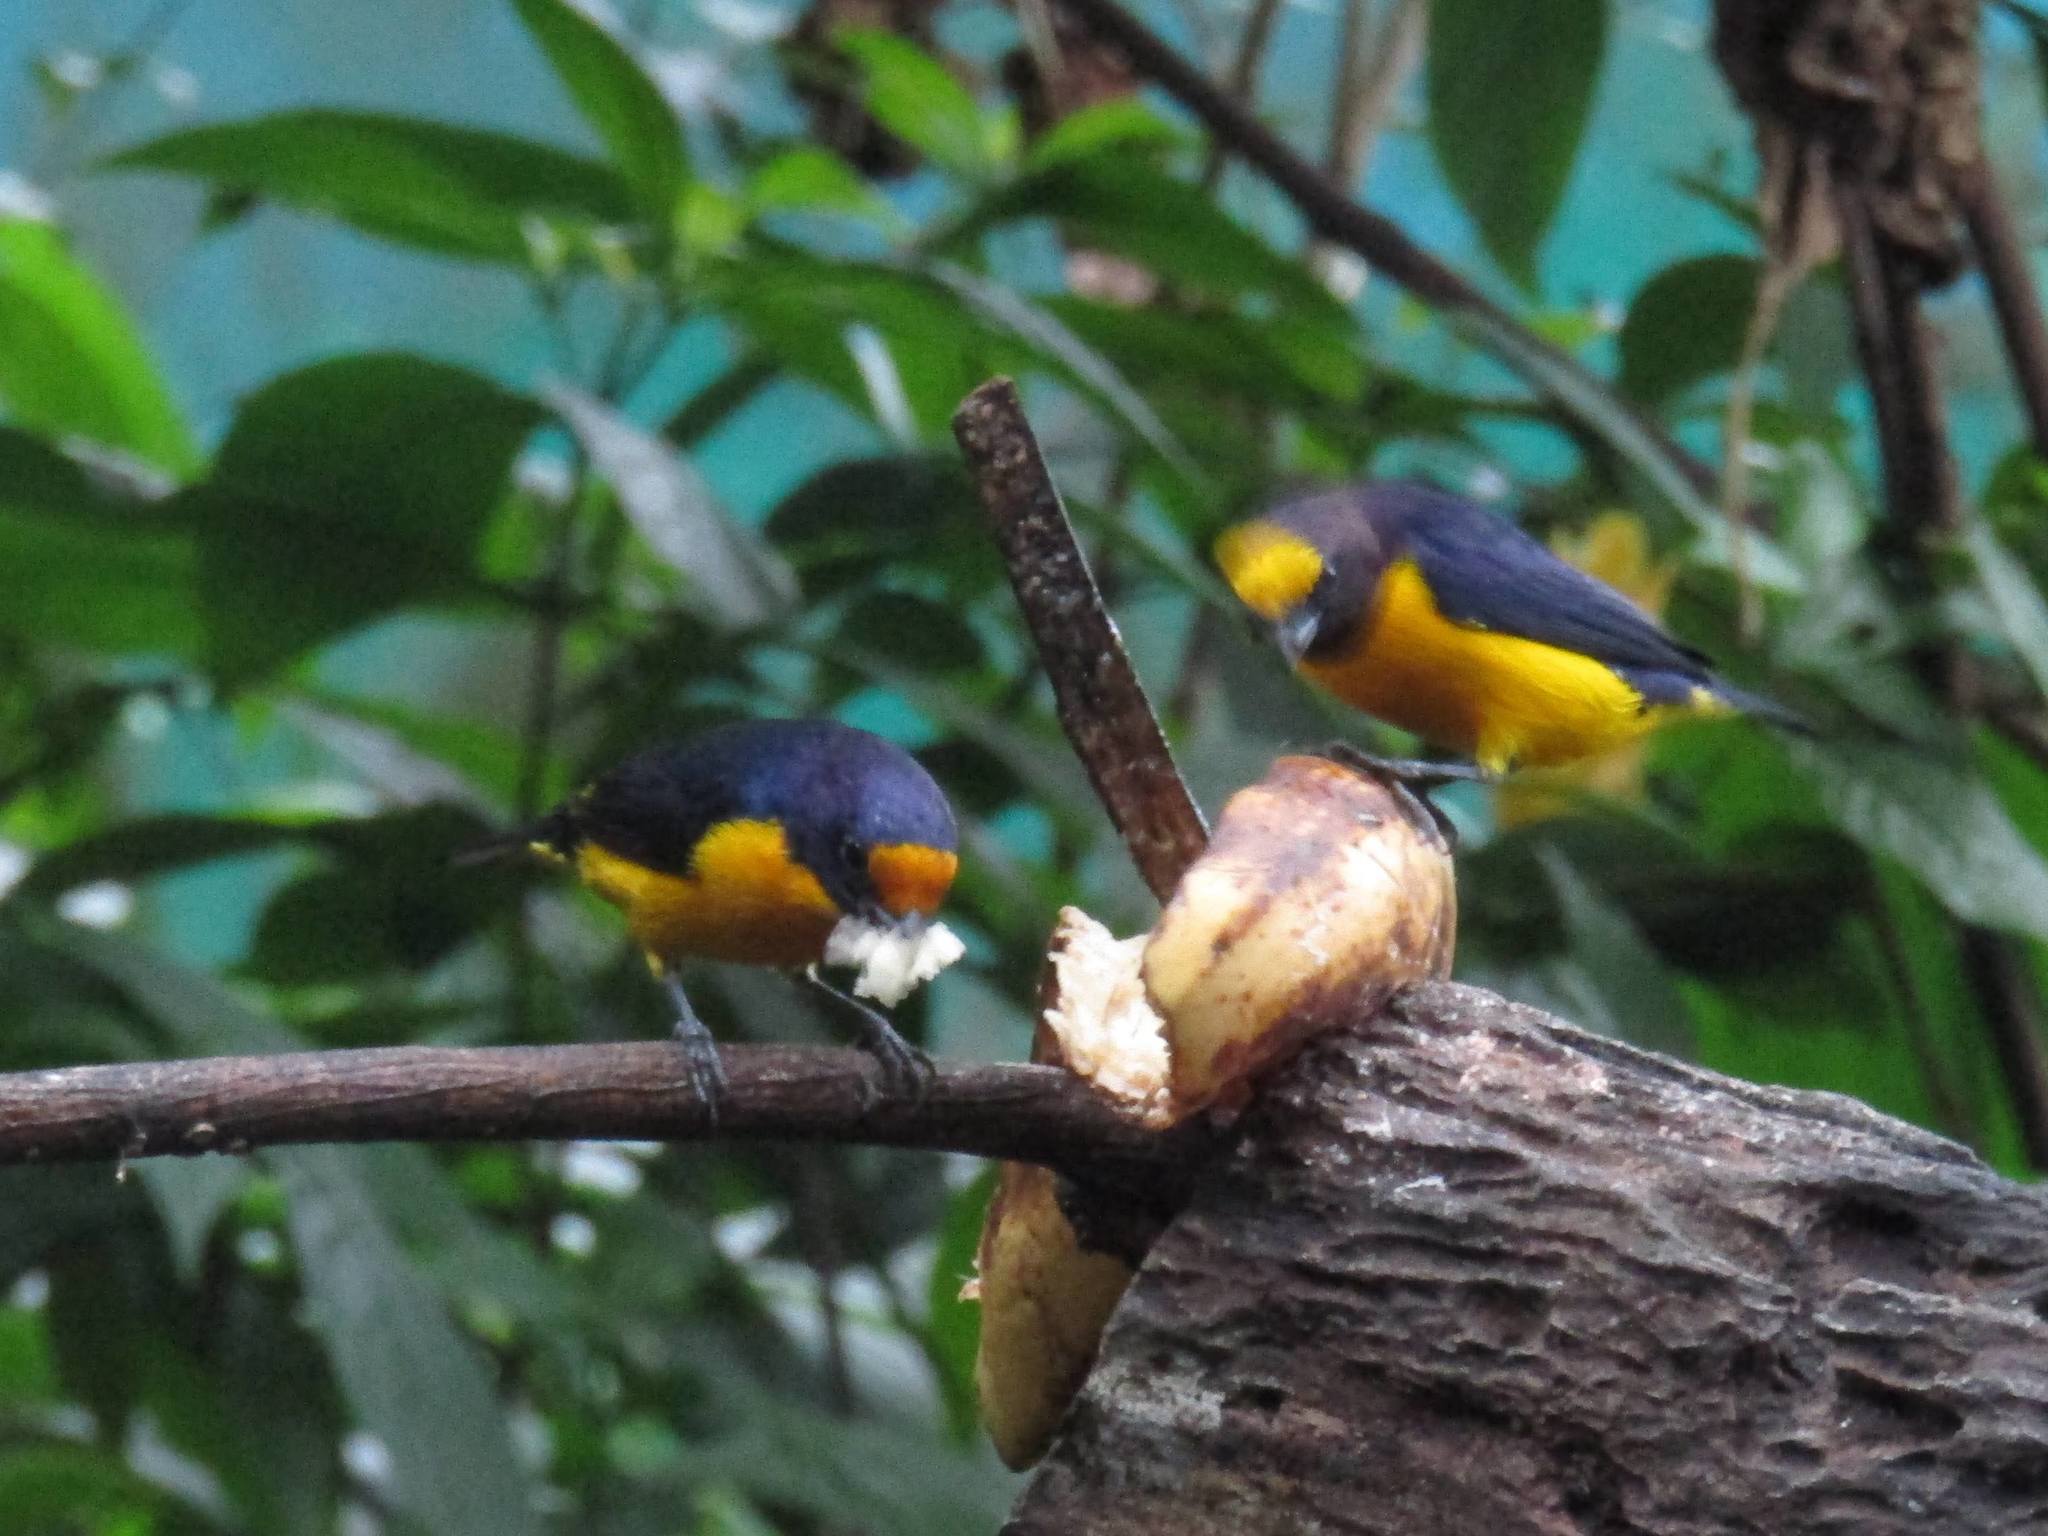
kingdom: Animalia
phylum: Chordata
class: Aves
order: Passeriformes
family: Fringillidae
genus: Euphonia
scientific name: Euphonia chlorotica
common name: Purple-throated euphonia
